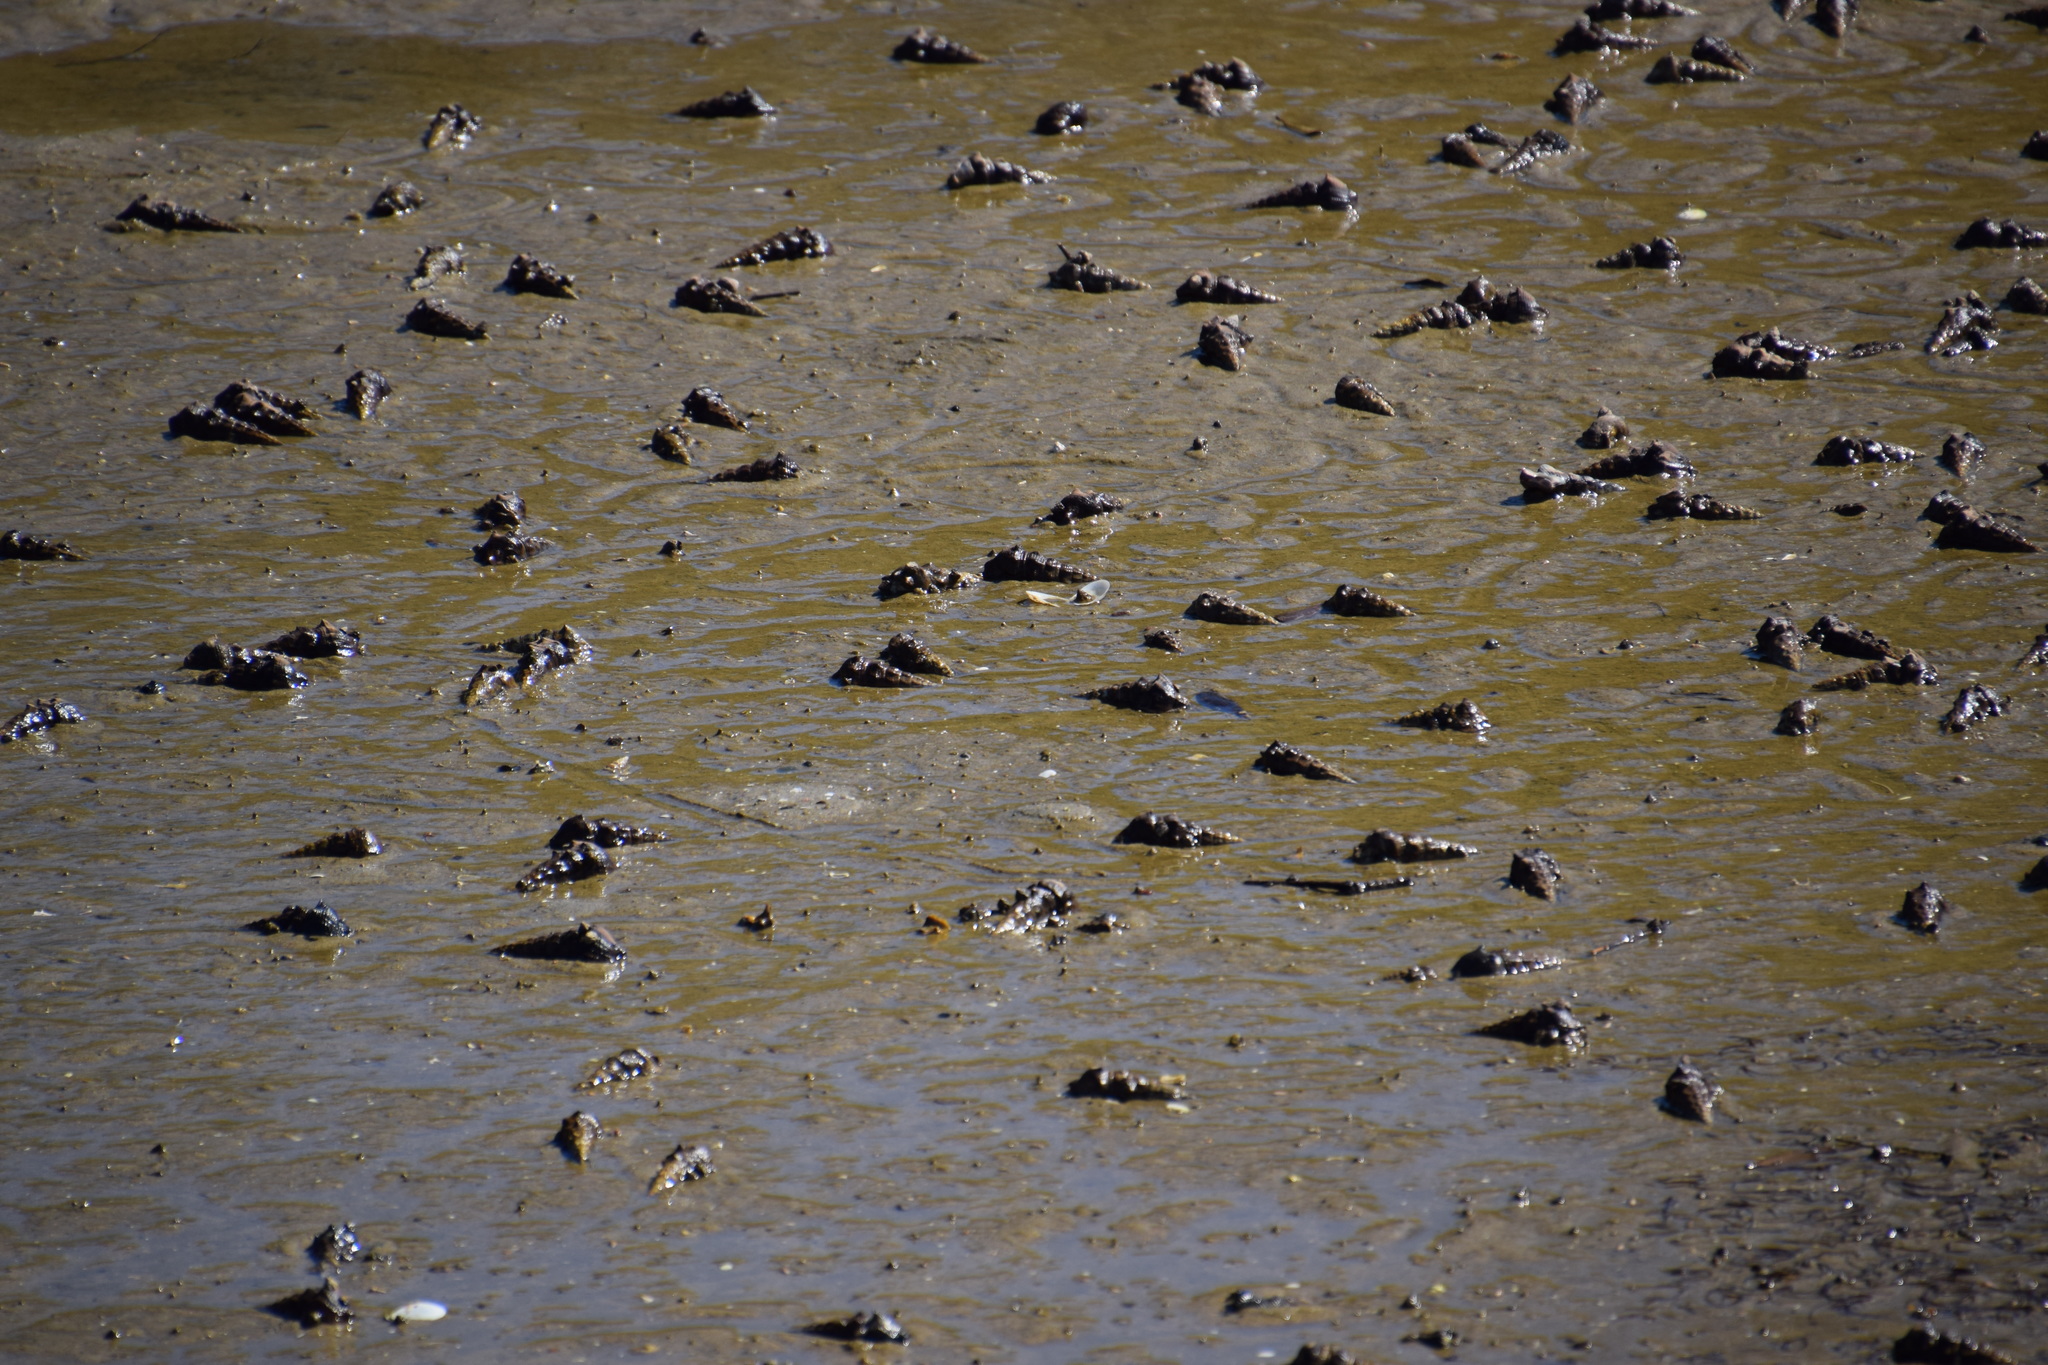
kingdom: Animalia
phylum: Mollusca
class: Gastropoda
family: Batillariidae
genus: Pyrazus
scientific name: Pyrazus ebeninus
